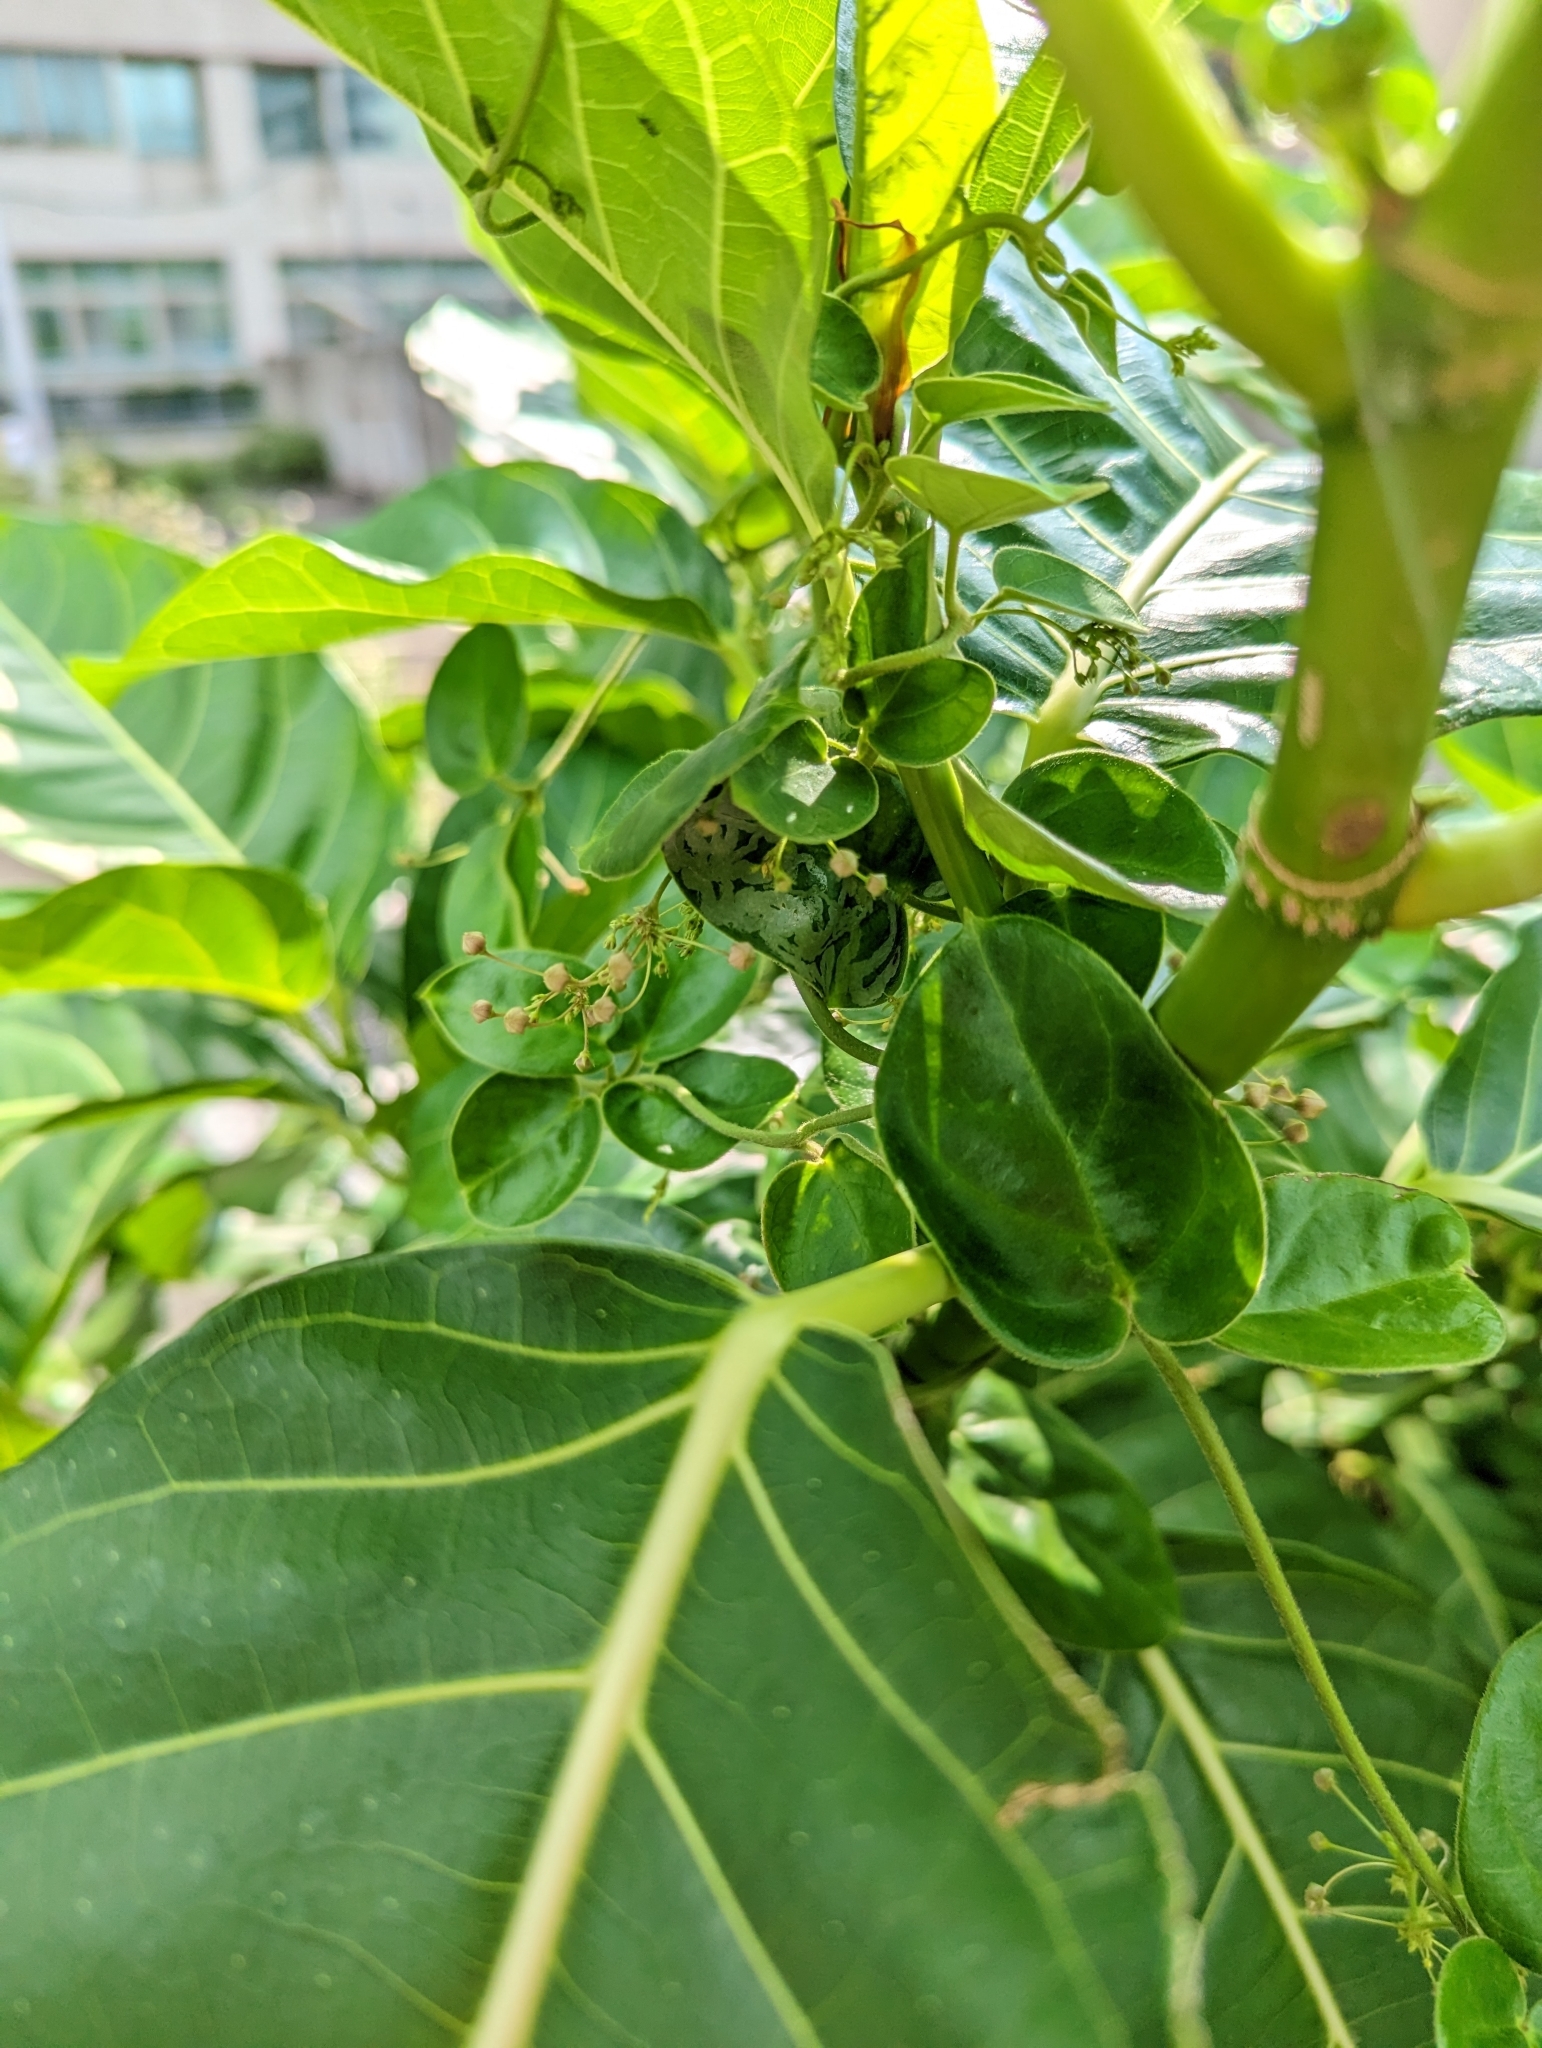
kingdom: Plantae
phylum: Tracheophyta
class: Magnoliopsida
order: Rosales
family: Moraceae
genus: Ficus
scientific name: Ficus septica
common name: Septic fig
